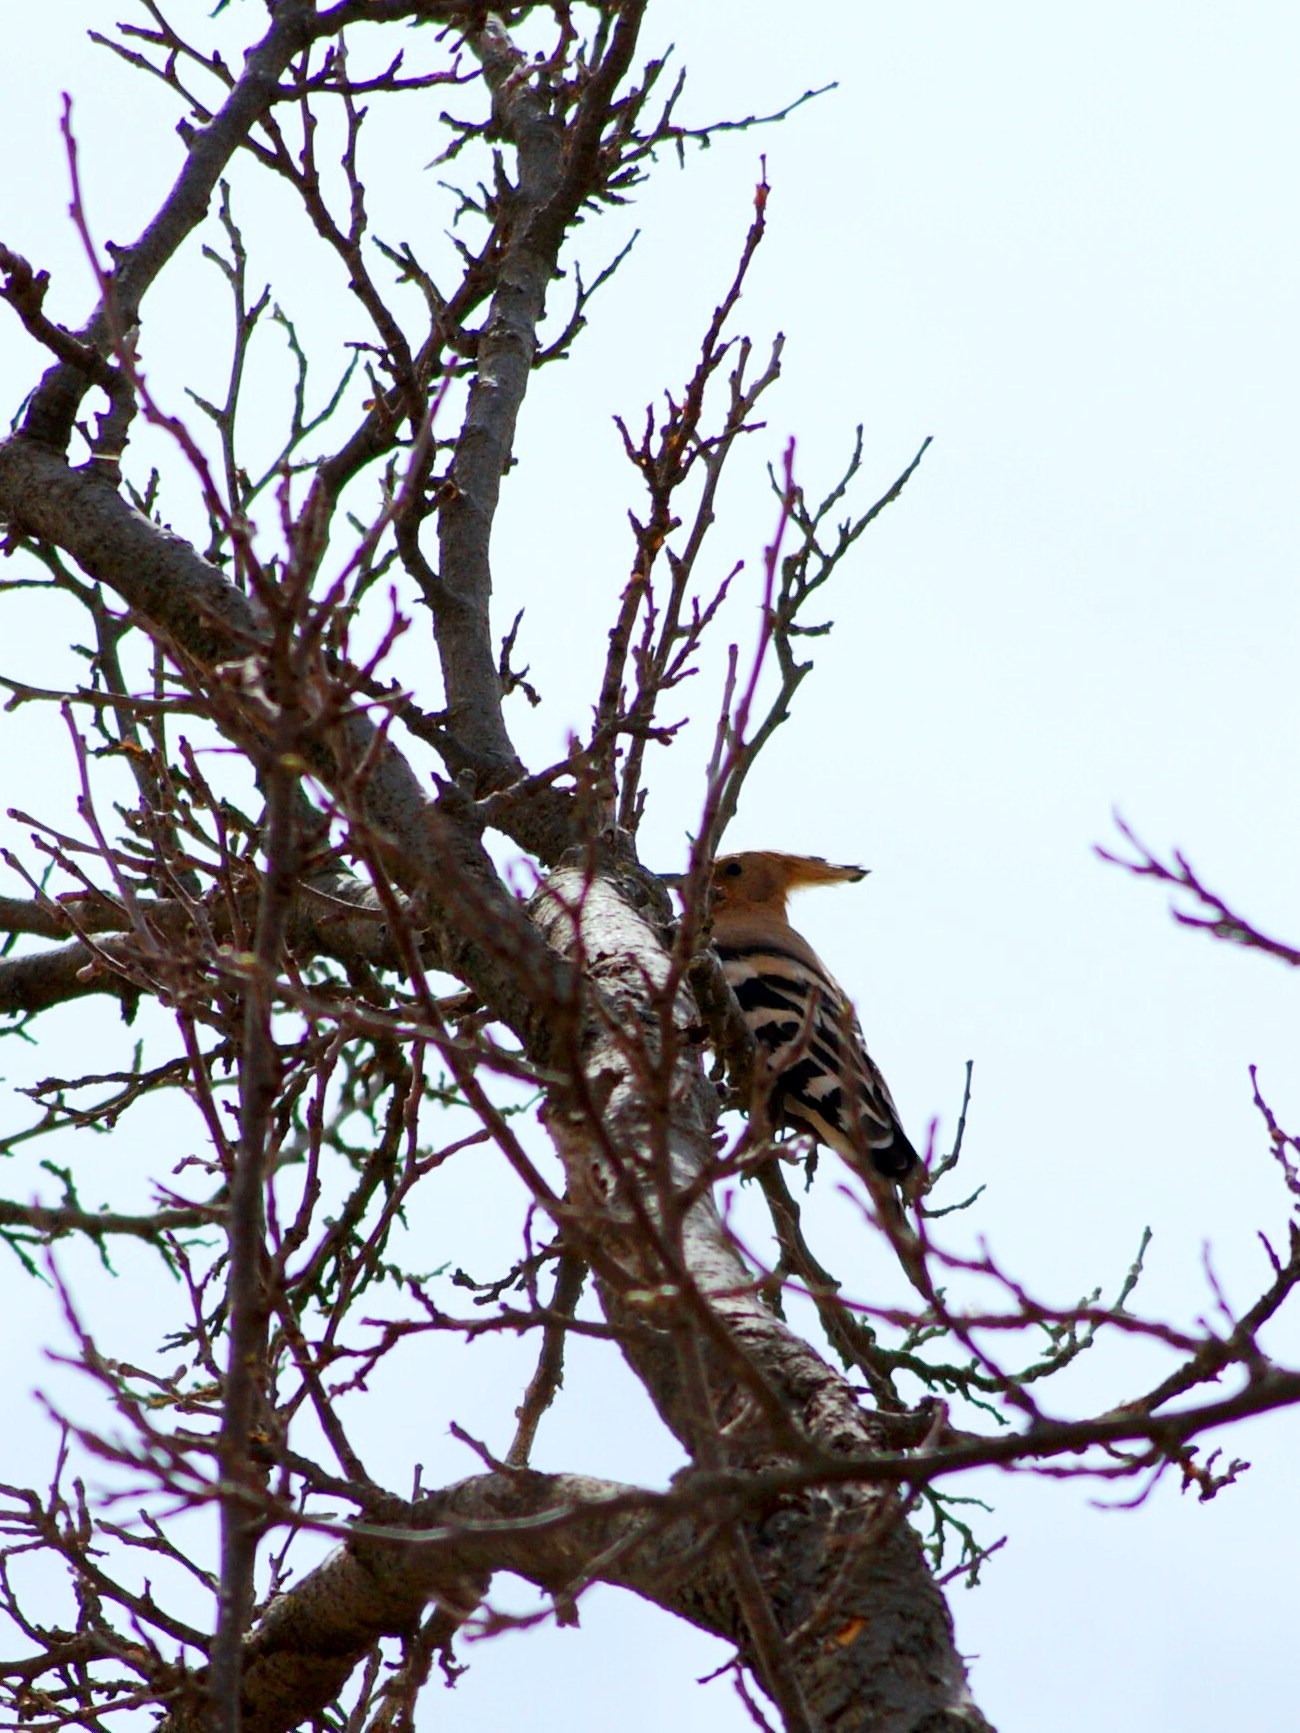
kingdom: Animalia
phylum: Chordata
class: Aves
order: Bucerotiformes
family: Upupidae
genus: Upupa
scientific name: Upupa epops
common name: Eurasian hoopoe
